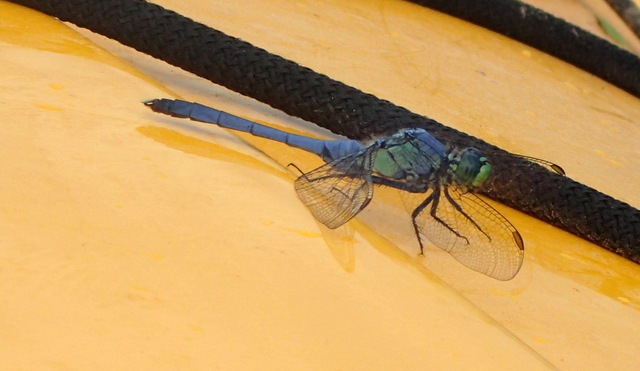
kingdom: Animalia
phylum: Arthropoda
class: Insecta
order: Odonata
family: Libellulidae
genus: Erythemis
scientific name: Erythemis simplicicollis
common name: Eastern pondhawk
